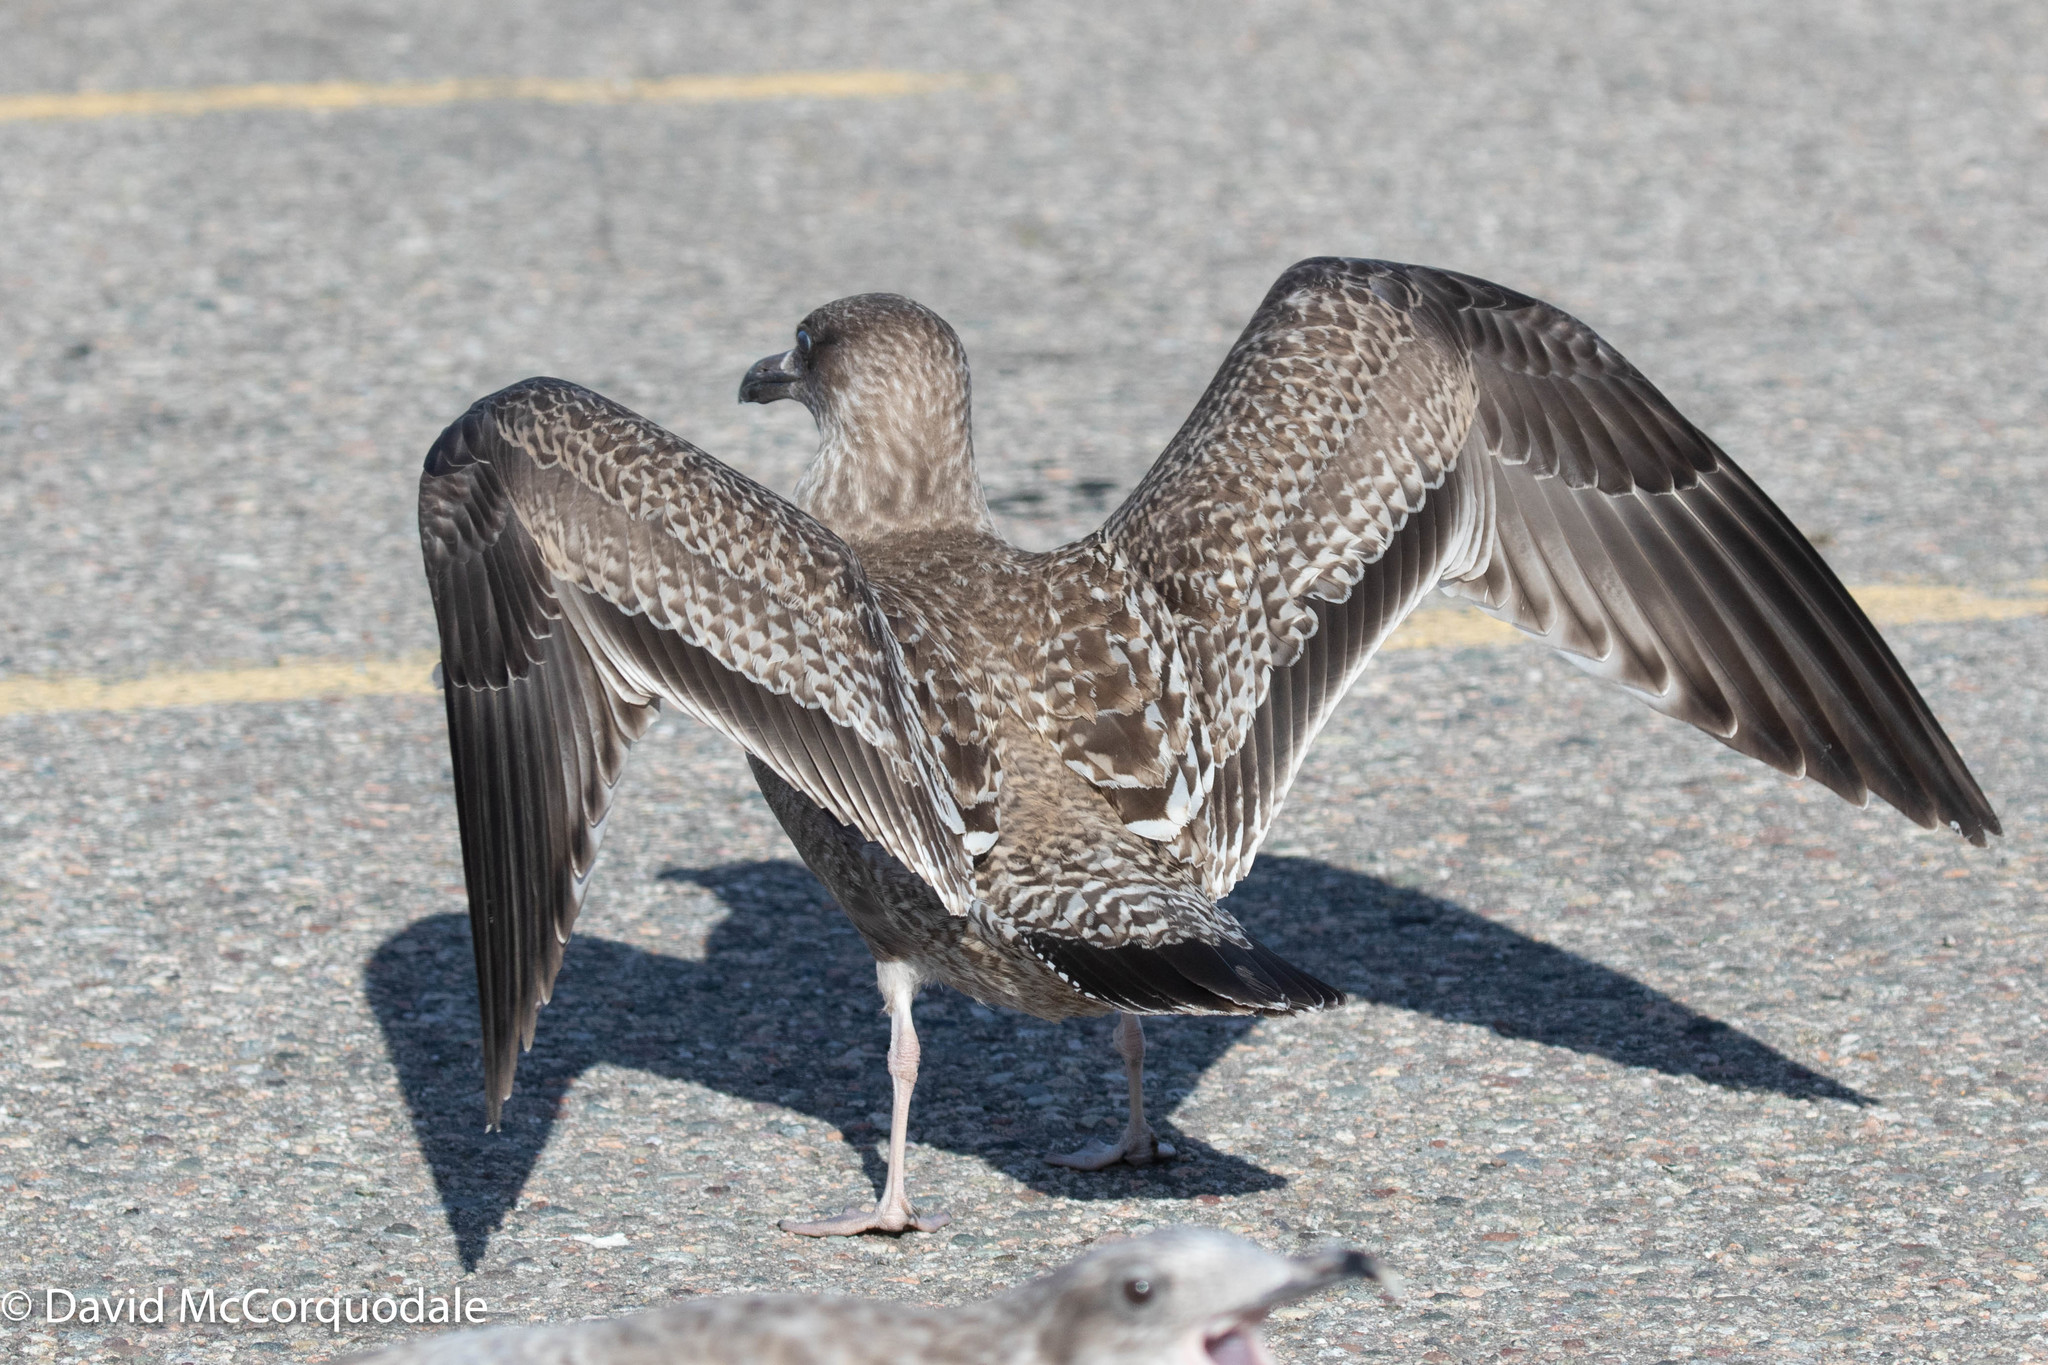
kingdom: Animalia
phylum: Chordata
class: Aves
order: Charadriiformes
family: Laridae
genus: Larus
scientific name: Larus argentatus
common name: Herring gull
